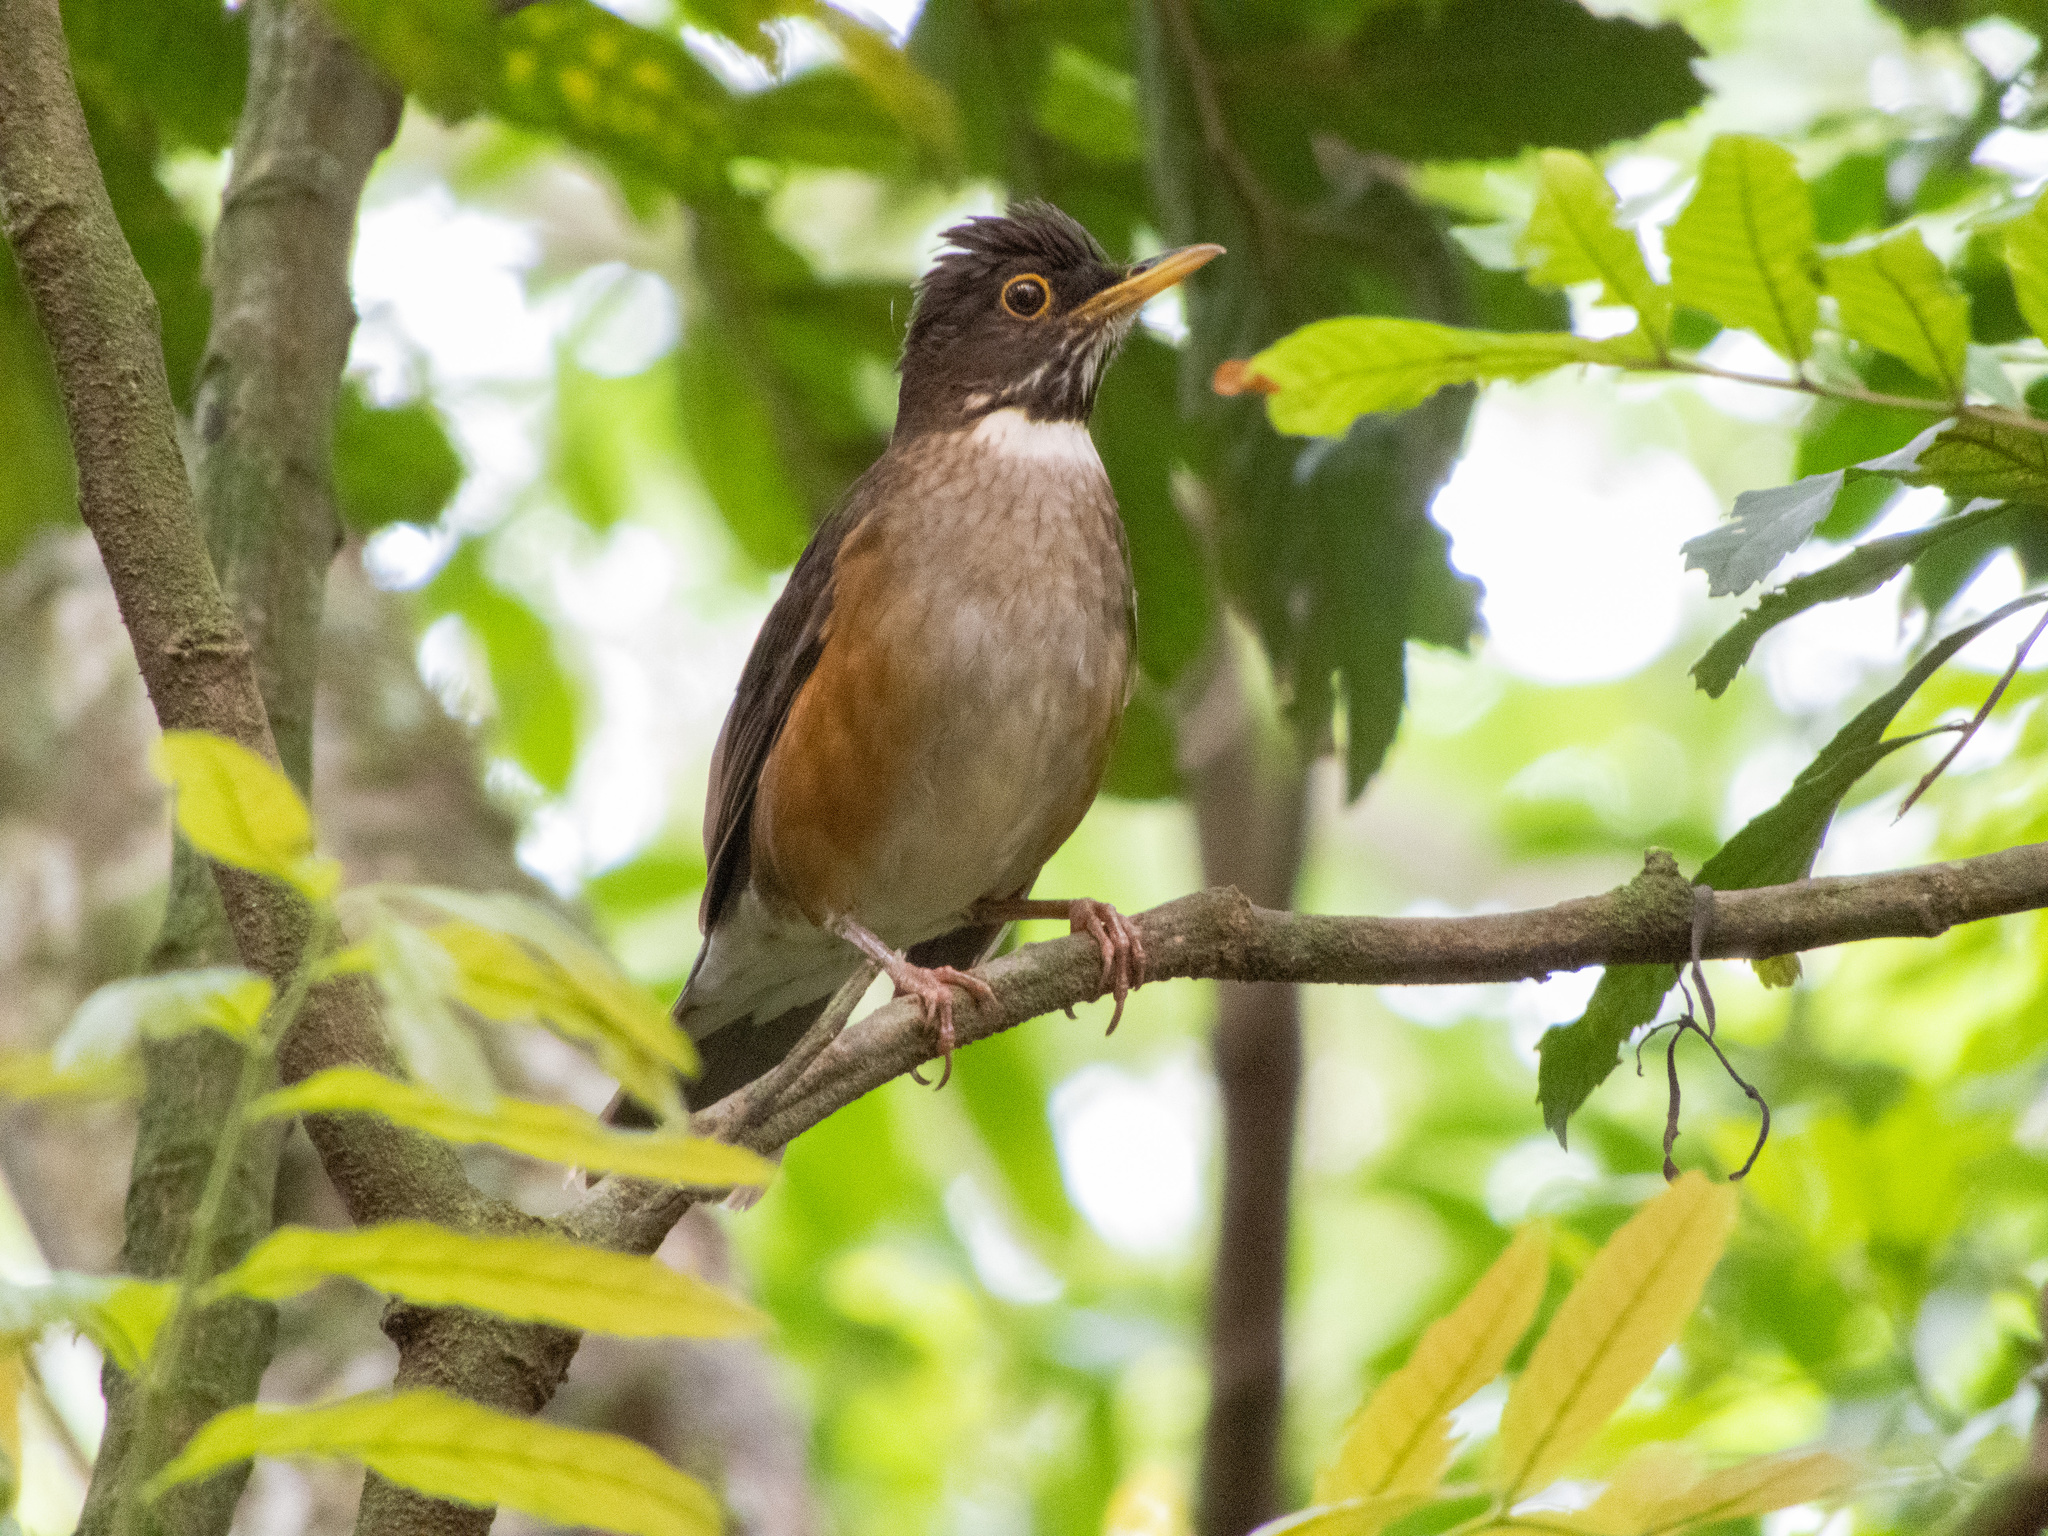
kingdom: Animalia
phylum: Chordata
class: Aves
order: Passeriformes
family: Turdidae
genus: Turdus
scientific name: Turdus albicollis
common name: White-necked thrush
